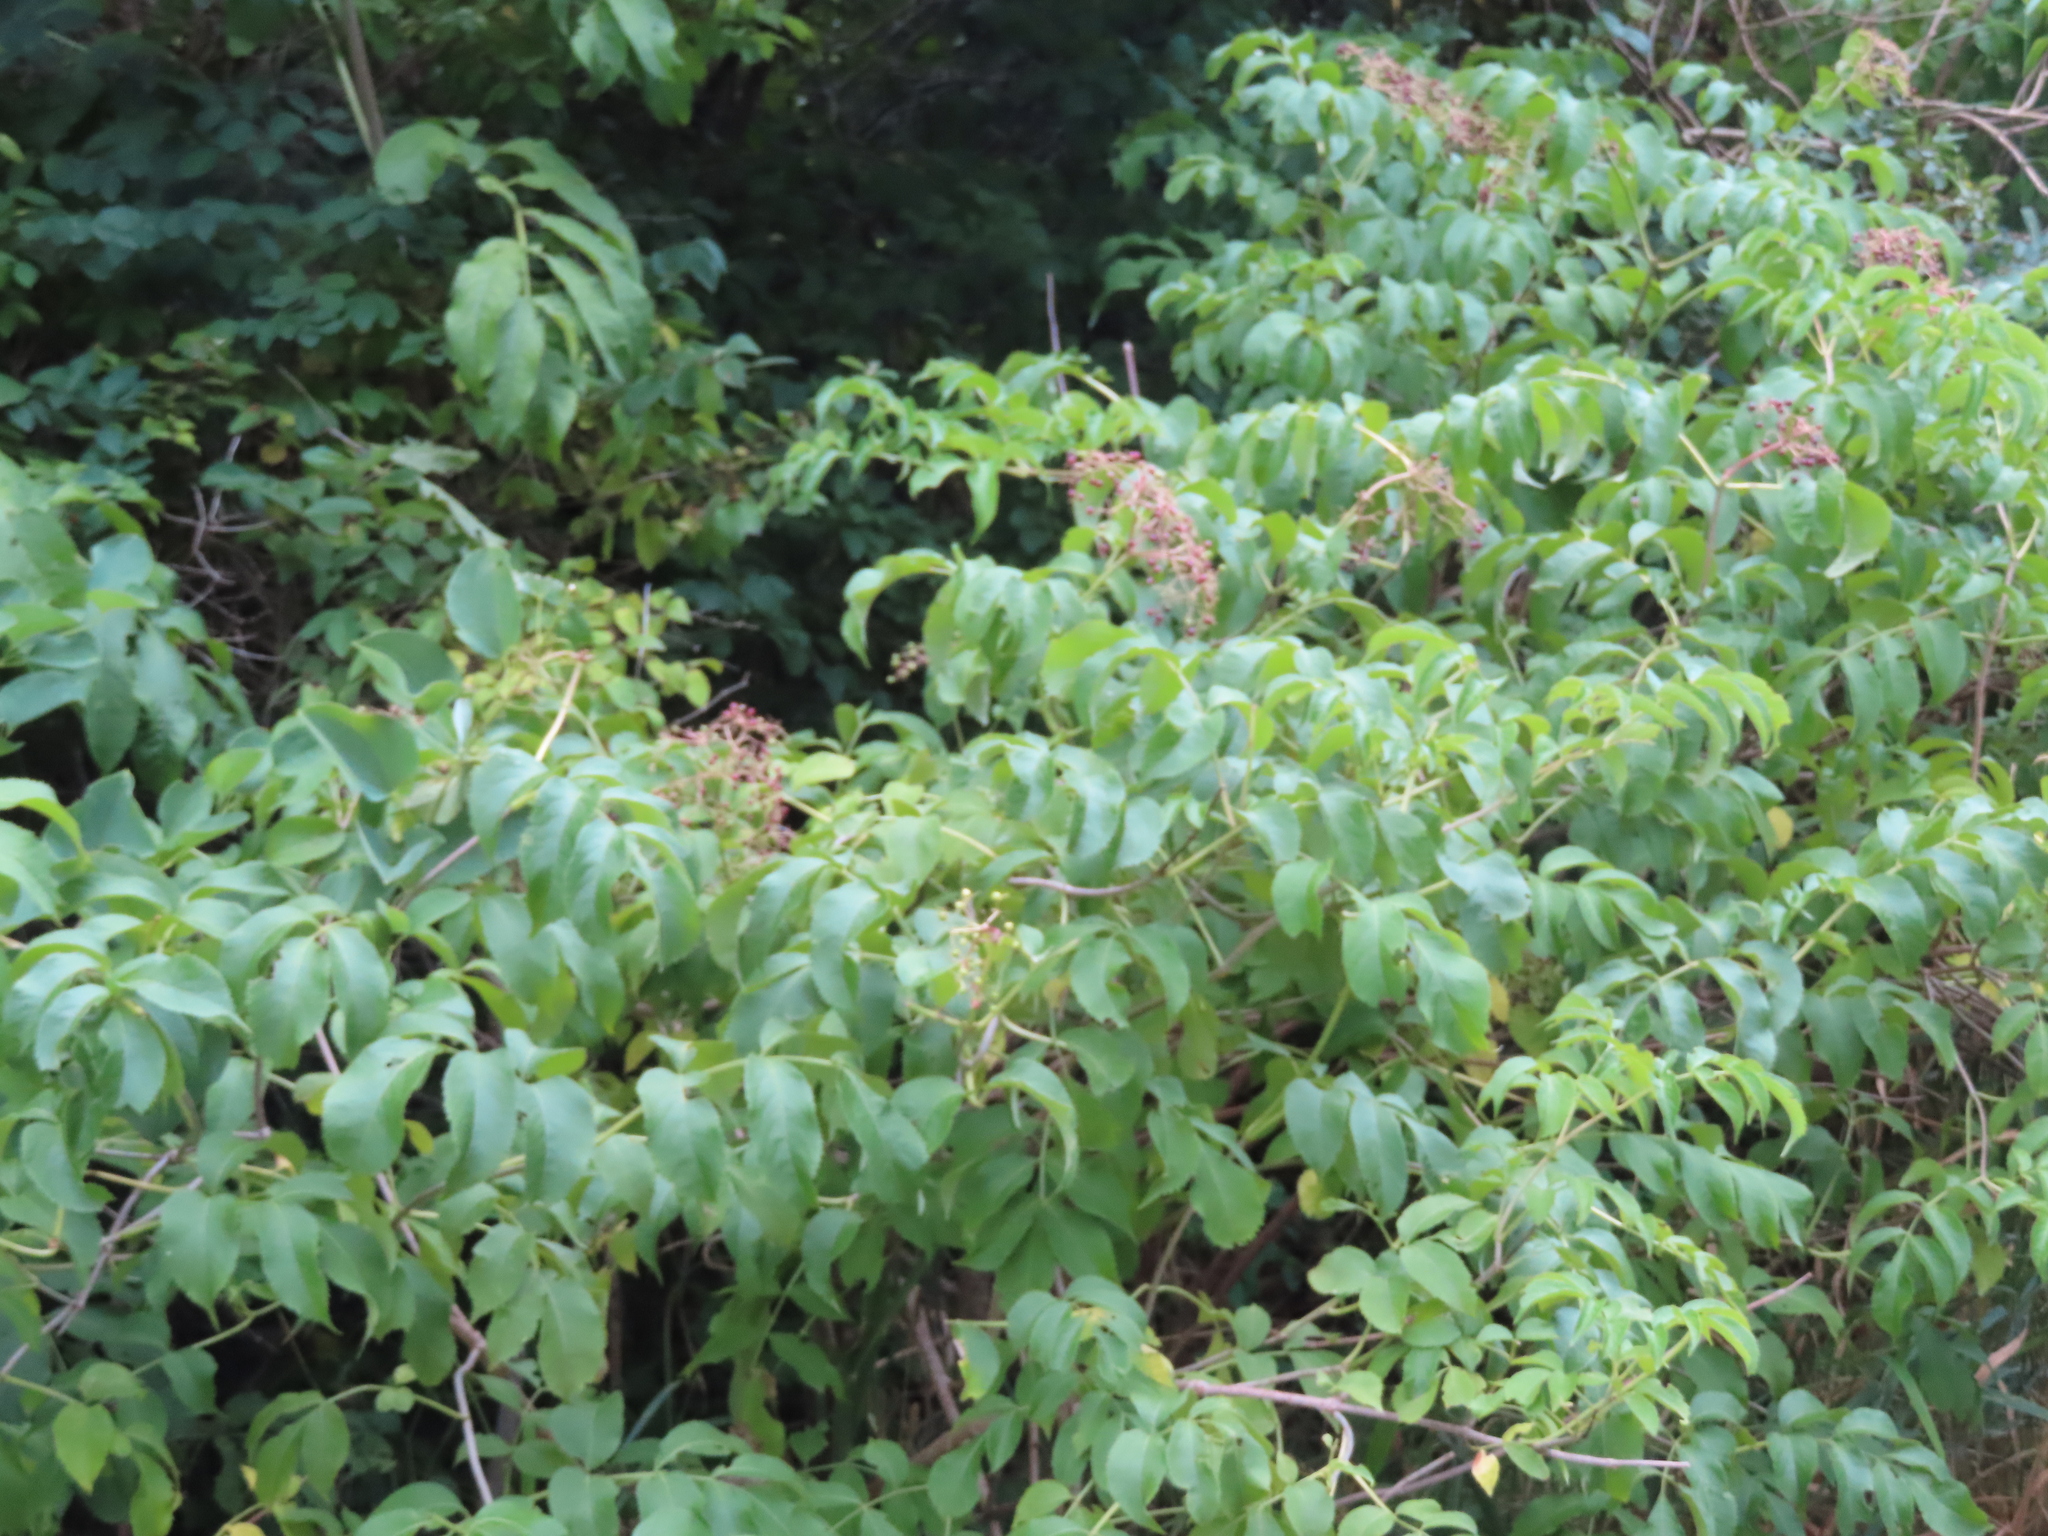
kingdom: Plantae
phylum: Tracheophyta
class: Magnoliopsida
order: Dipsacales
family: Viburnaceae
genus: Sambucus
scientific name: Sambucus canadensis
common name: American elder
